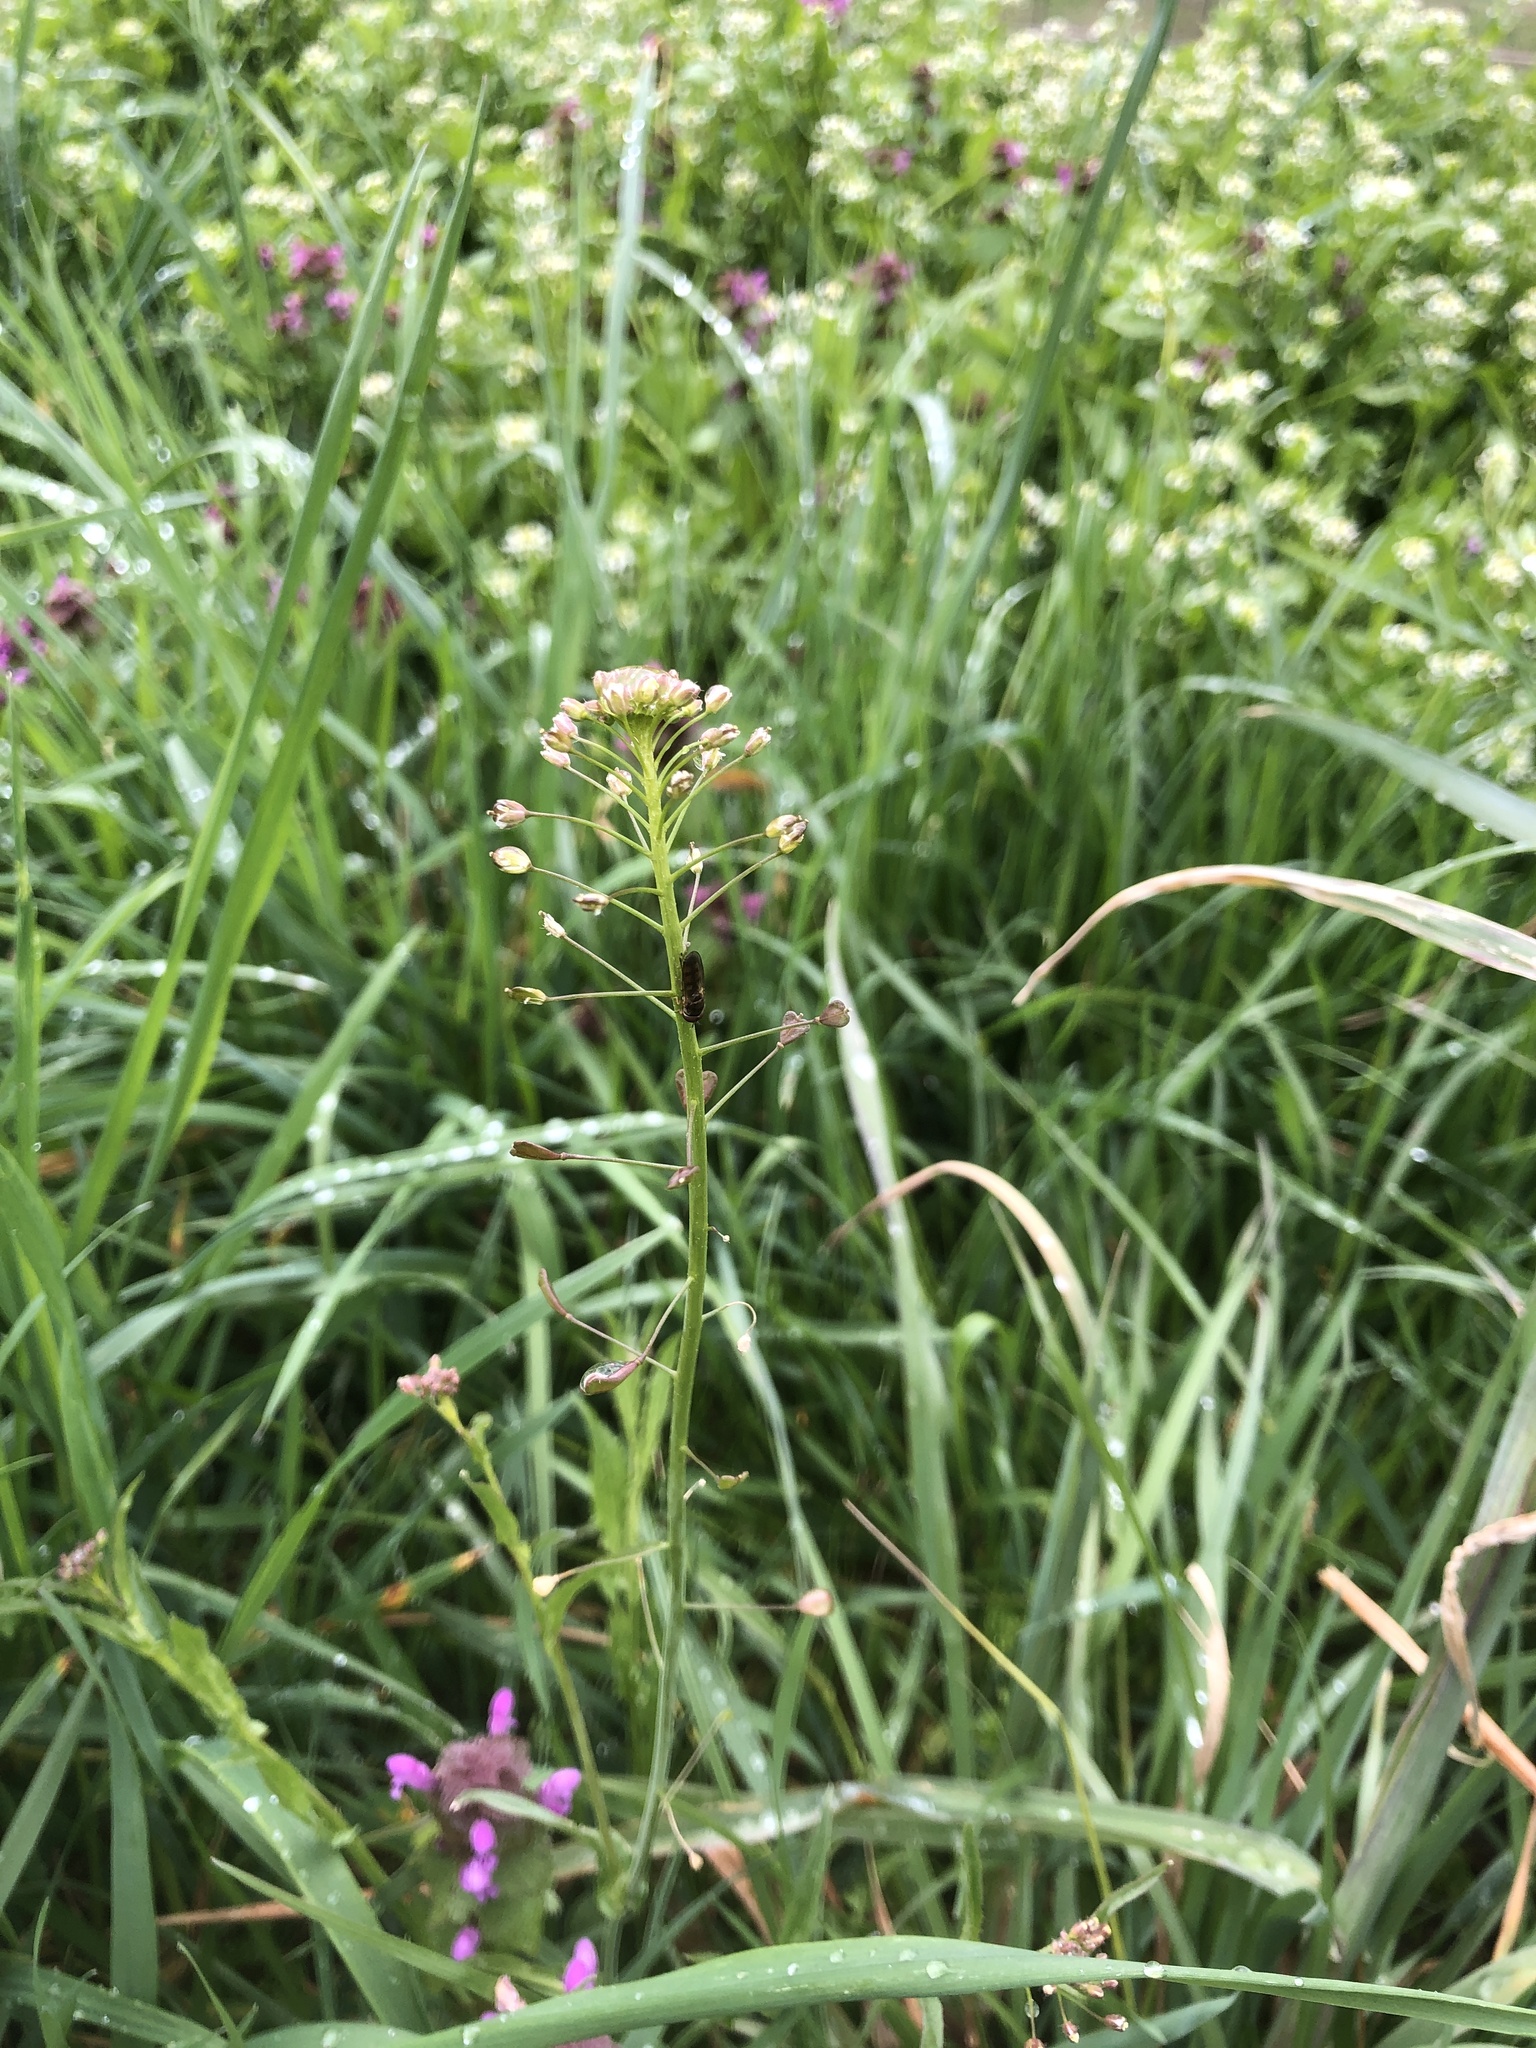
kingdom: Plantae
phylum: Tracheophyta
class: Magnoliopsida
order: Brassicales
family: Brassicaceae
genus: Capsella
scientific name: Capsella bursa-pastoris
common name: Shepherd's purse
